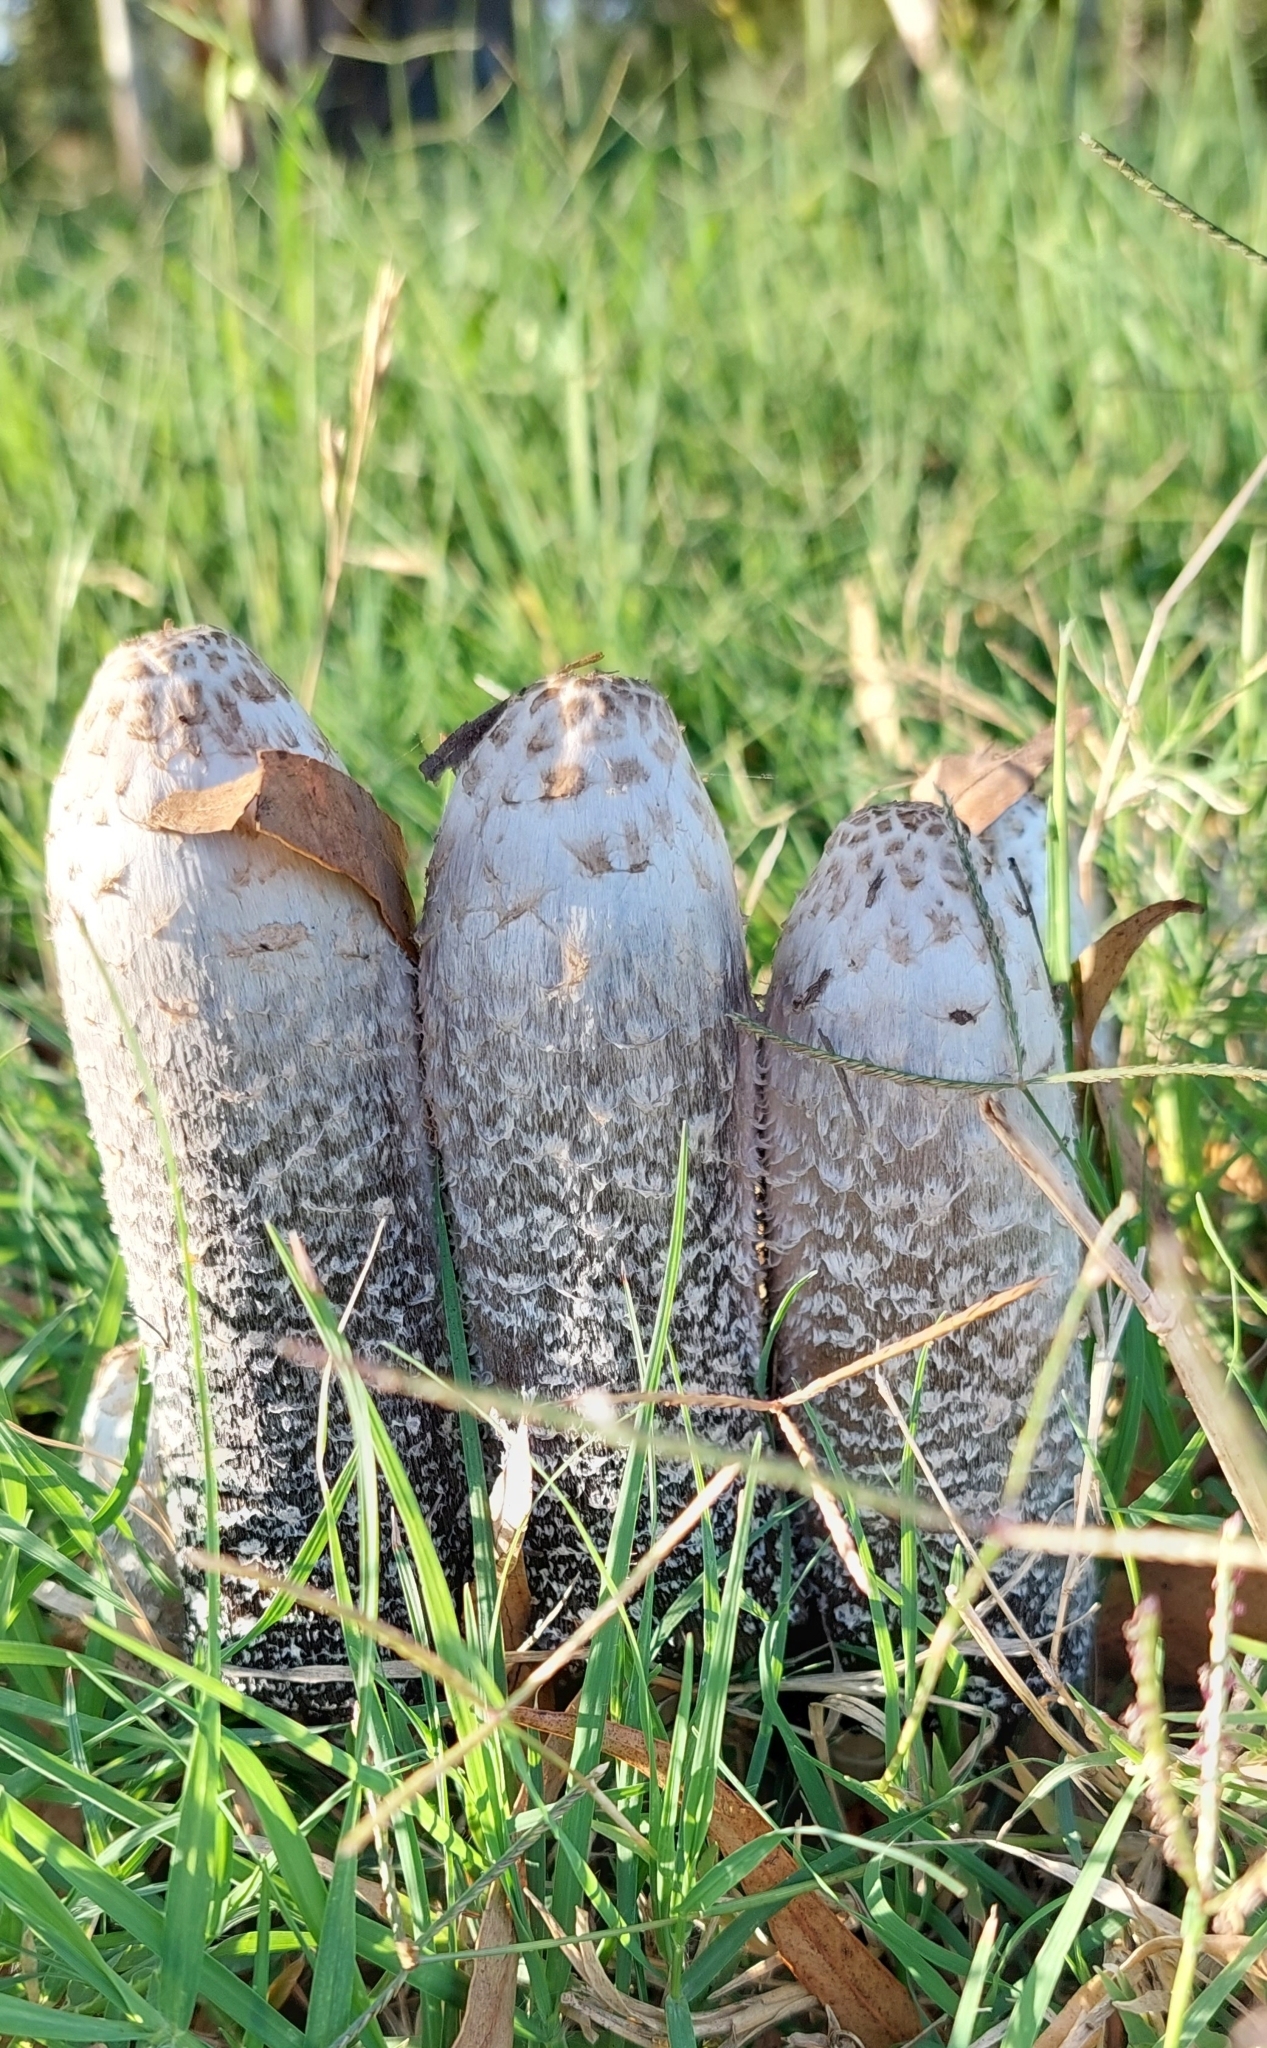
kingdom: Fungi
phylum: Basidiomycota
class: Agaricomycetes
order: Agaricales
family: Agaricaceae
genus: Coprinus
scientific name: Coprinus comatus
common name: Lawyer's wig
